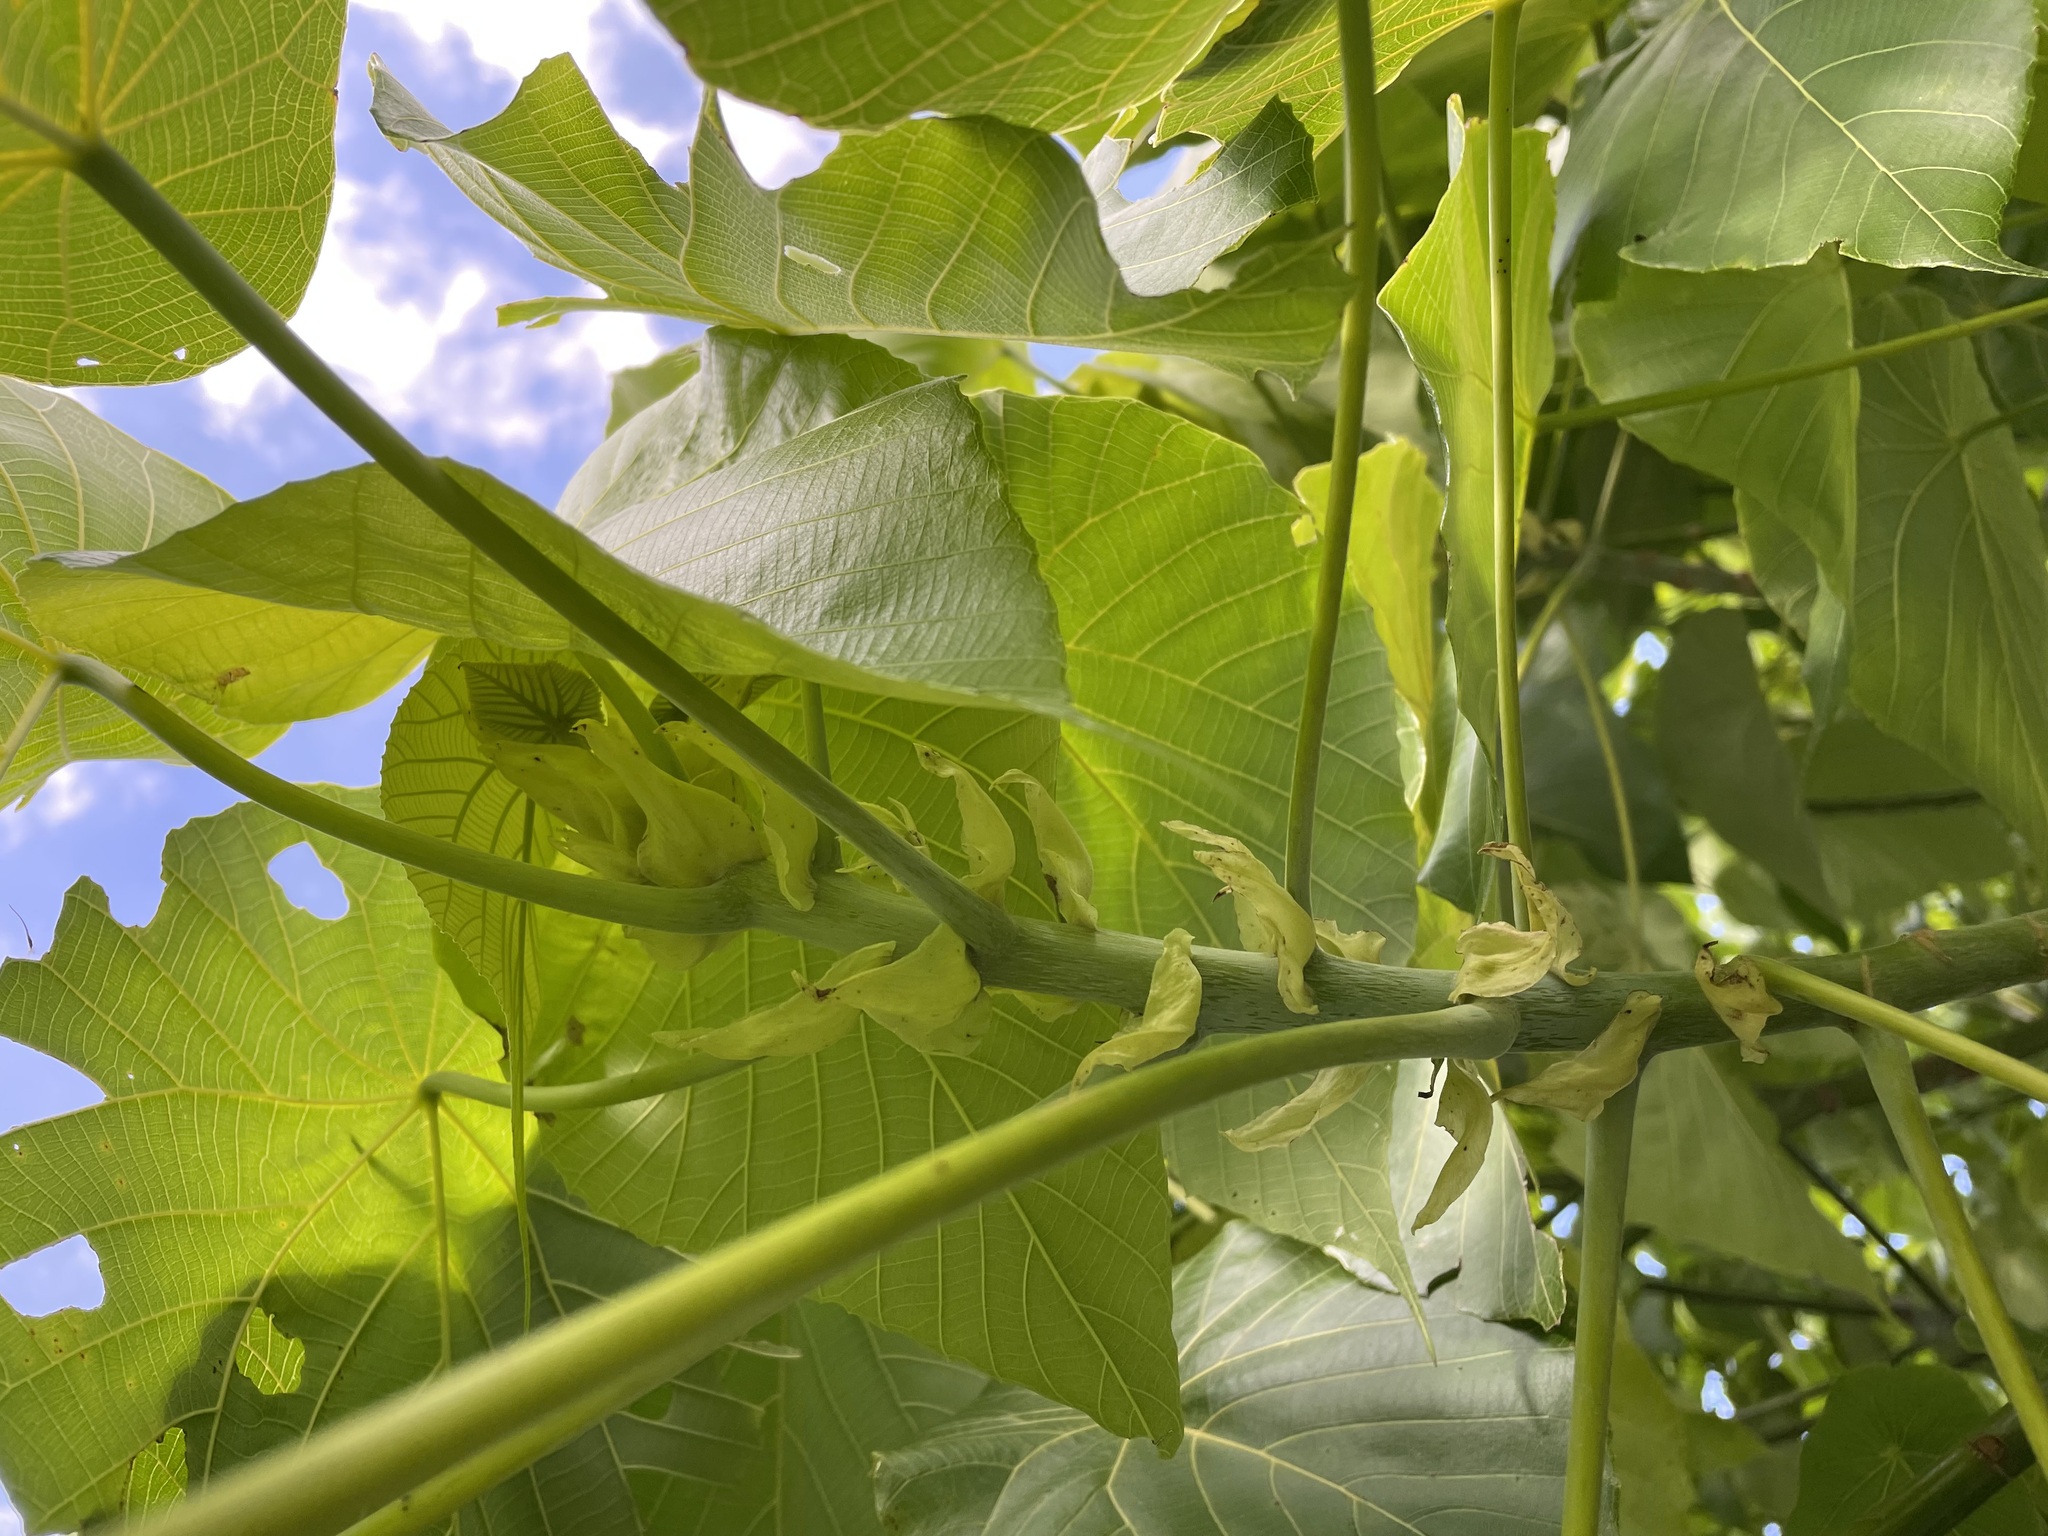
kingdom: Plantae
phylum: Tracheophyta
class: Magnoliopsida
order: Malpighiales
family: Euphorbiaceae
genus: Macaranga
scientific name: Macaranga tanarius
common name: Parasol leaf tree
